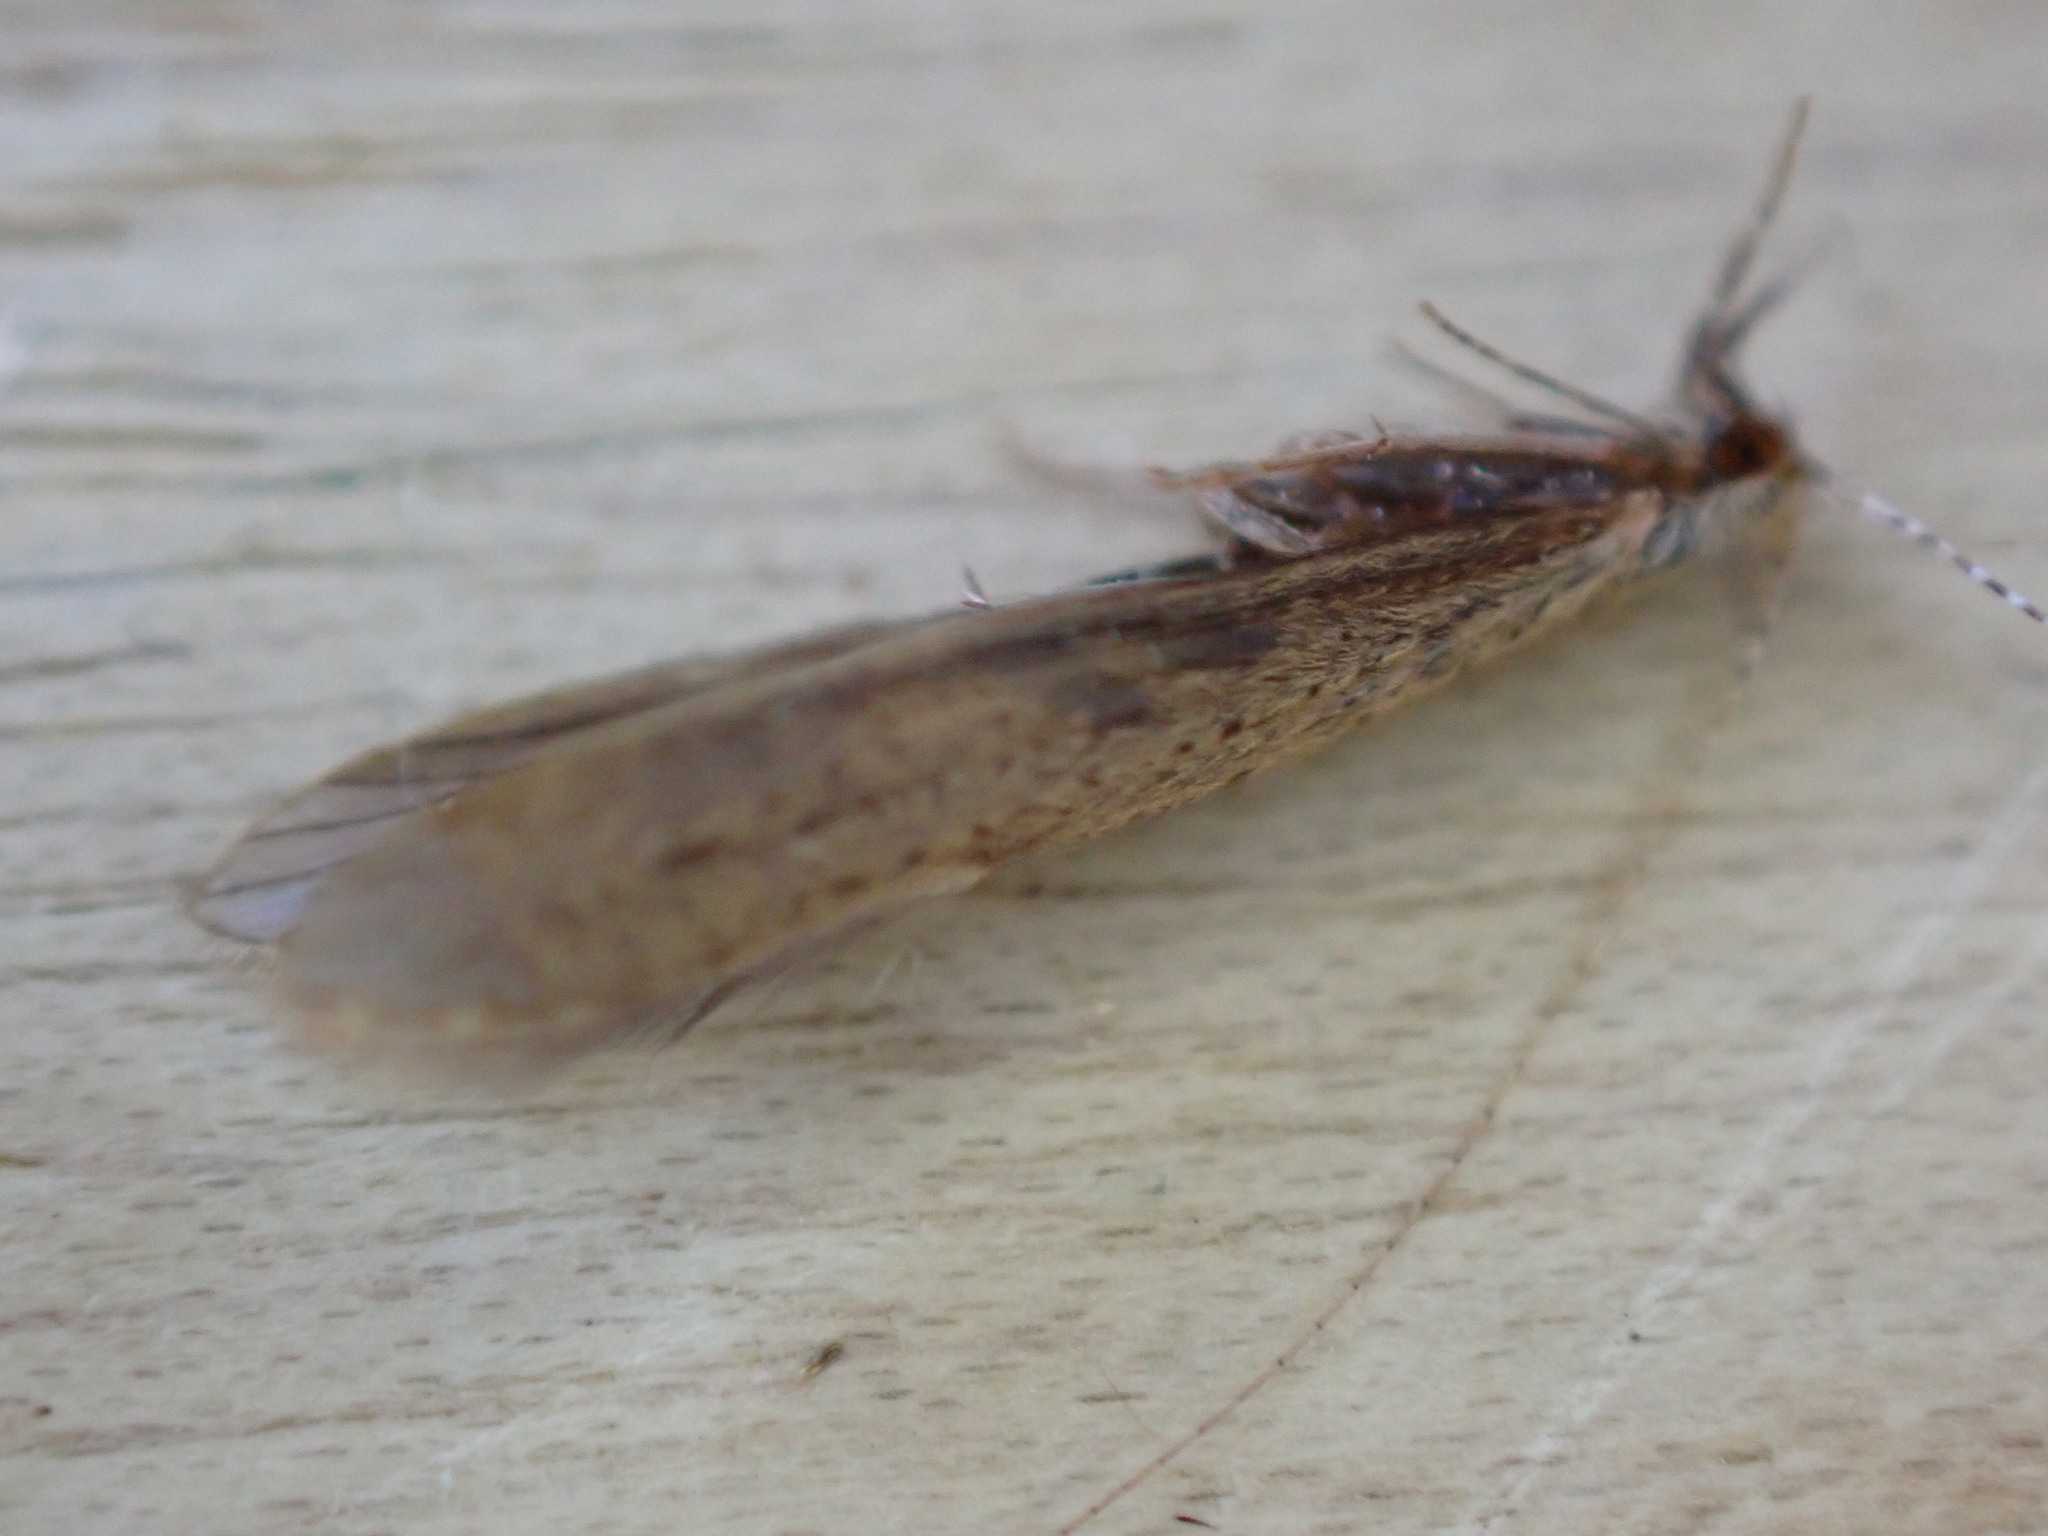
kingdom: Animalia
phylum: Arthropoda
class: Insecta
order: Trichoptera
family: Leptoceridae
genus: Leptocerus
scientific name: Leptocerus tineiformis
